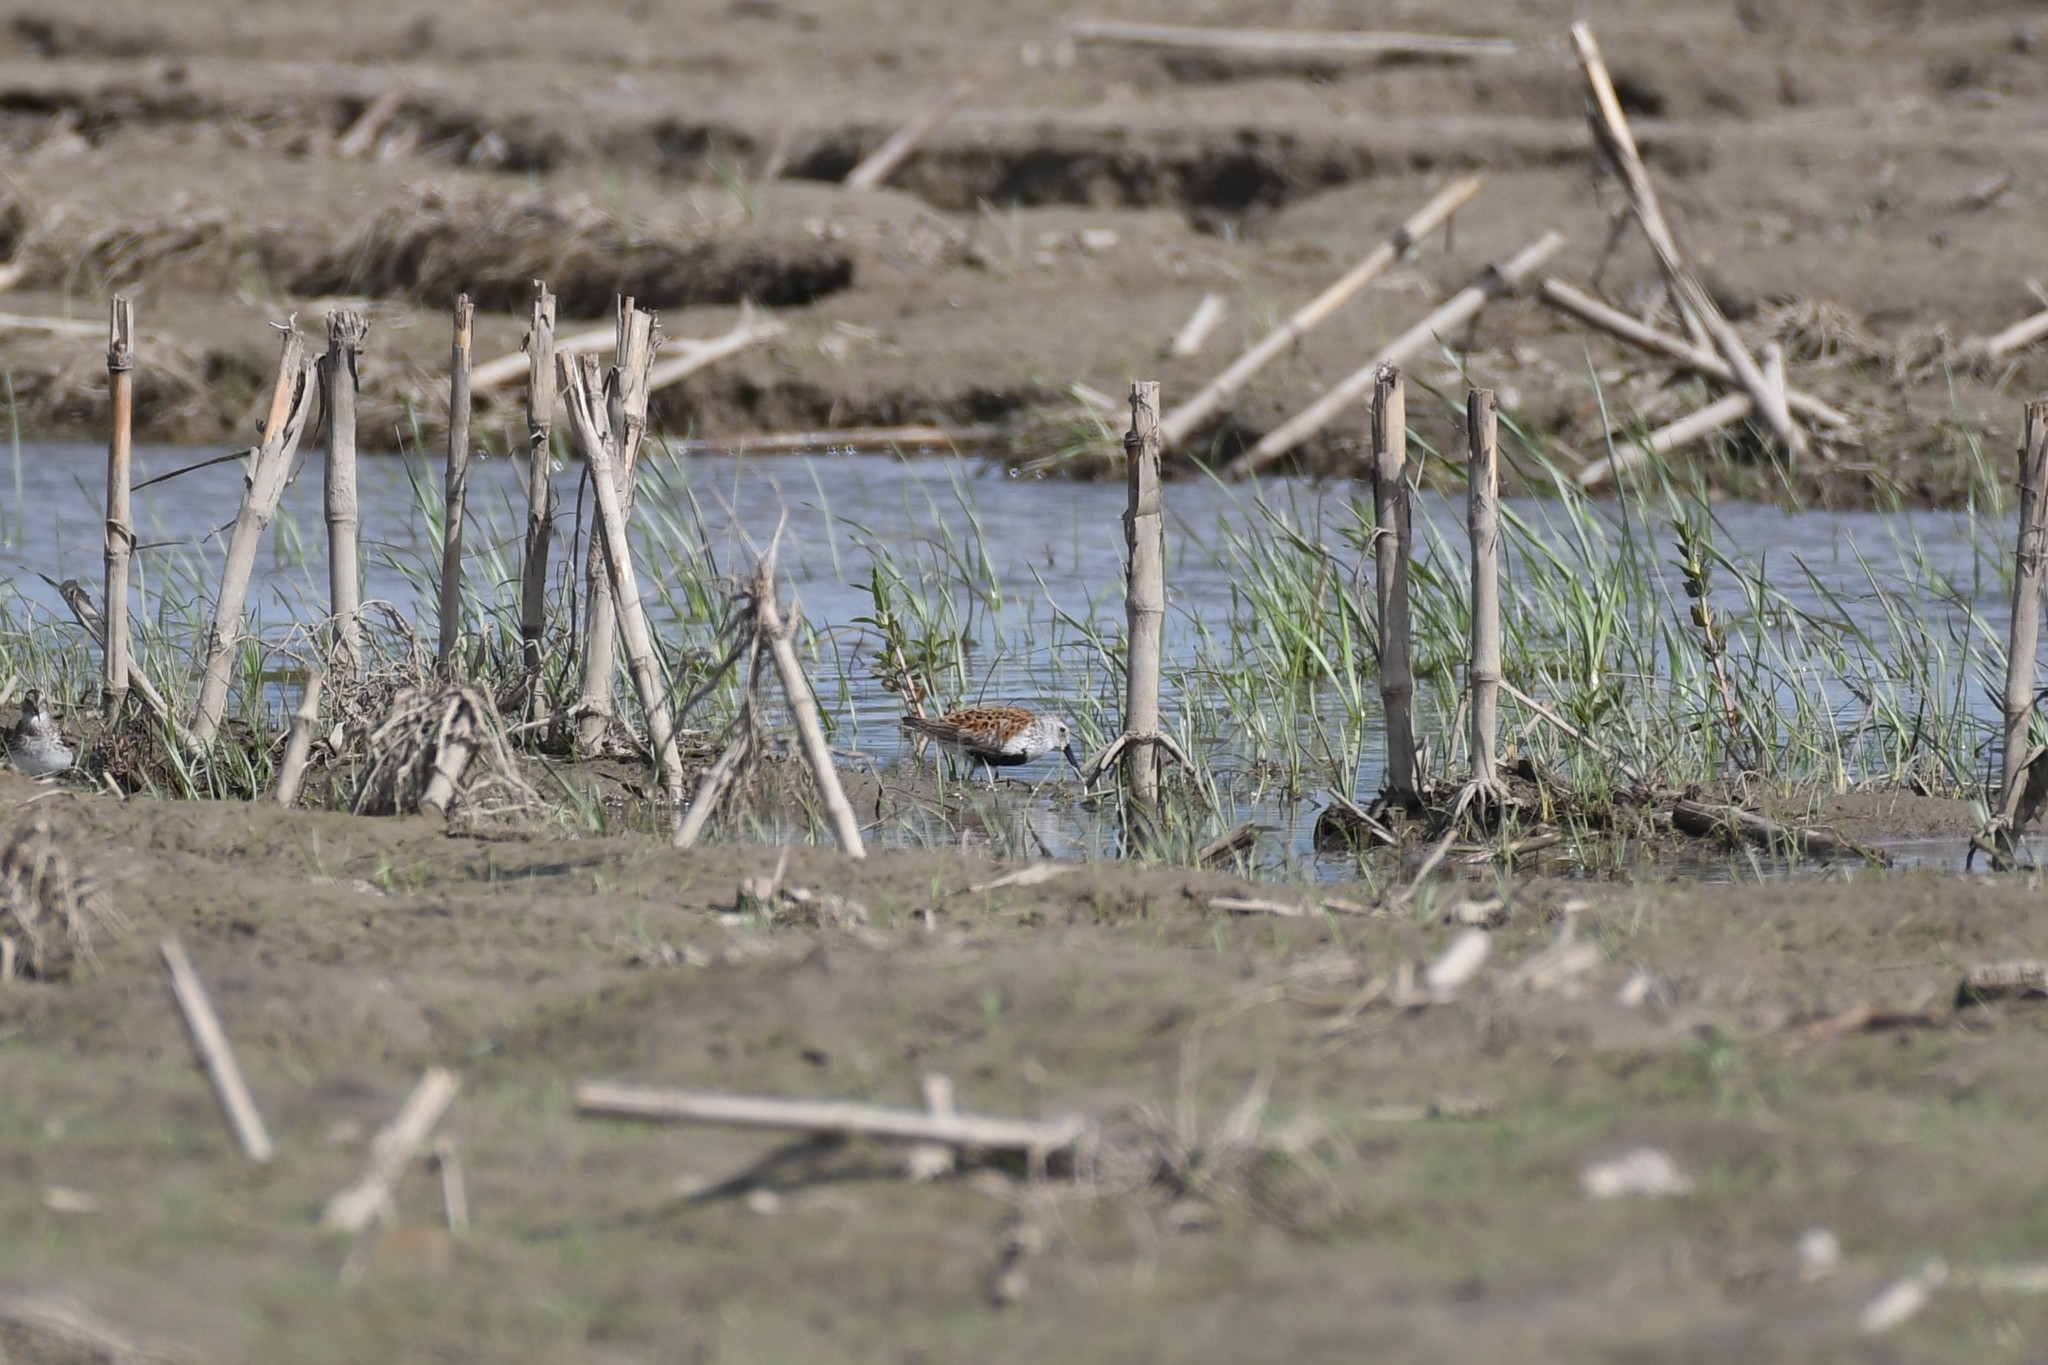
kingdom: Animalia
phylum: Chordata
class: Aves
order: Charadriiformes
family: Scolopacidae
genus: Calidris
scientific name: Calidris alpina
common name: Dunlin
